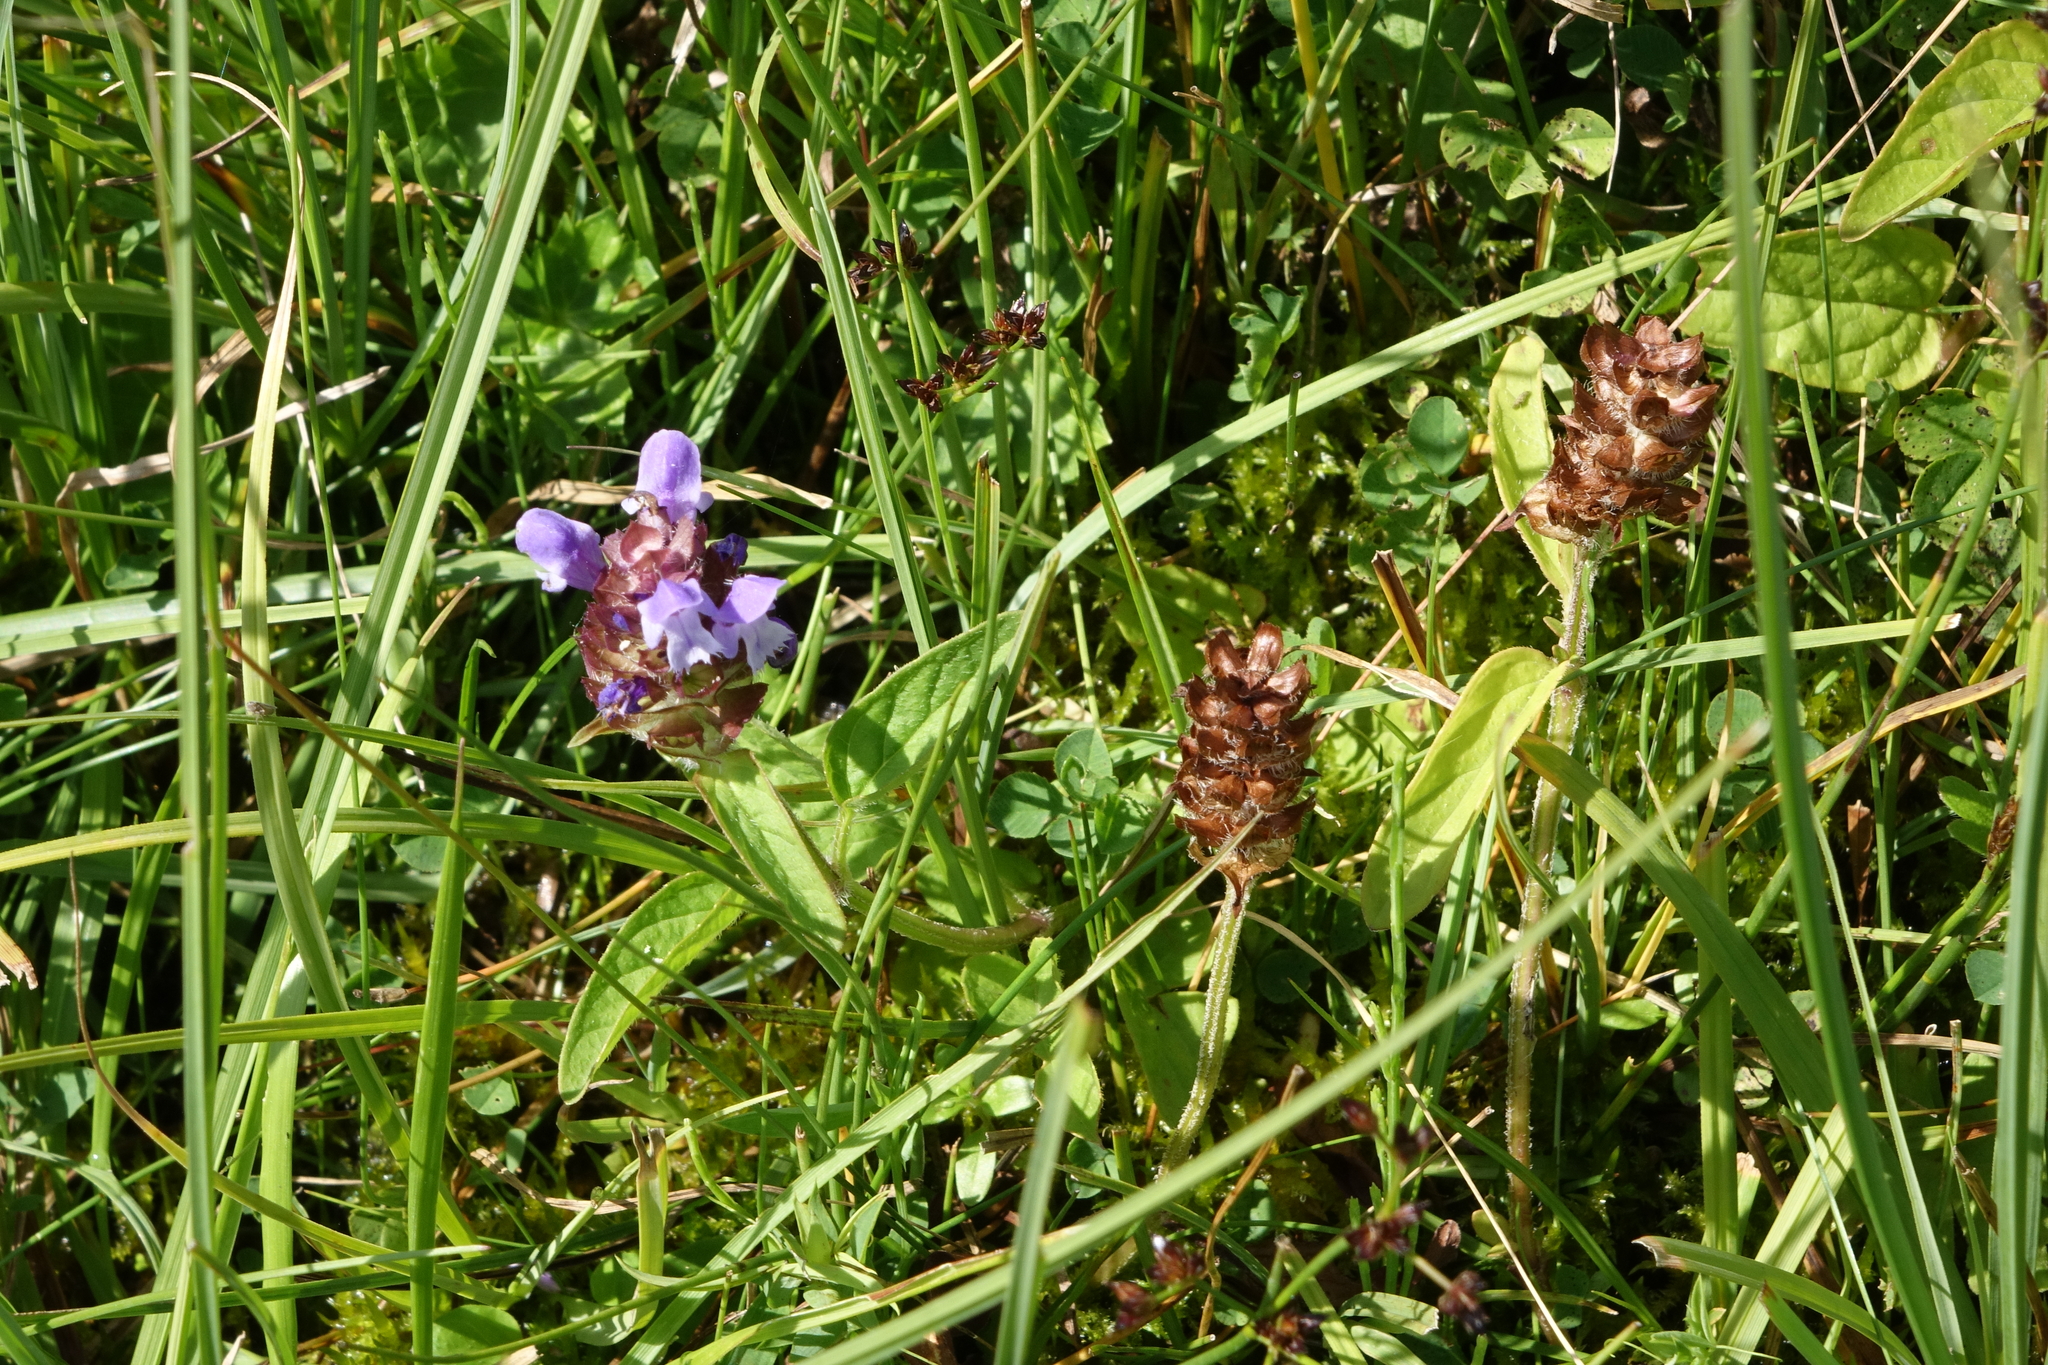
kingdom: Plantae
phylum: Tracheophyta
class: Magnoliopsida
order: Lamiales
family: Lamiaceae
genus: Prunella
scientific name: Prunella vulgaris
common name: Heal-all
